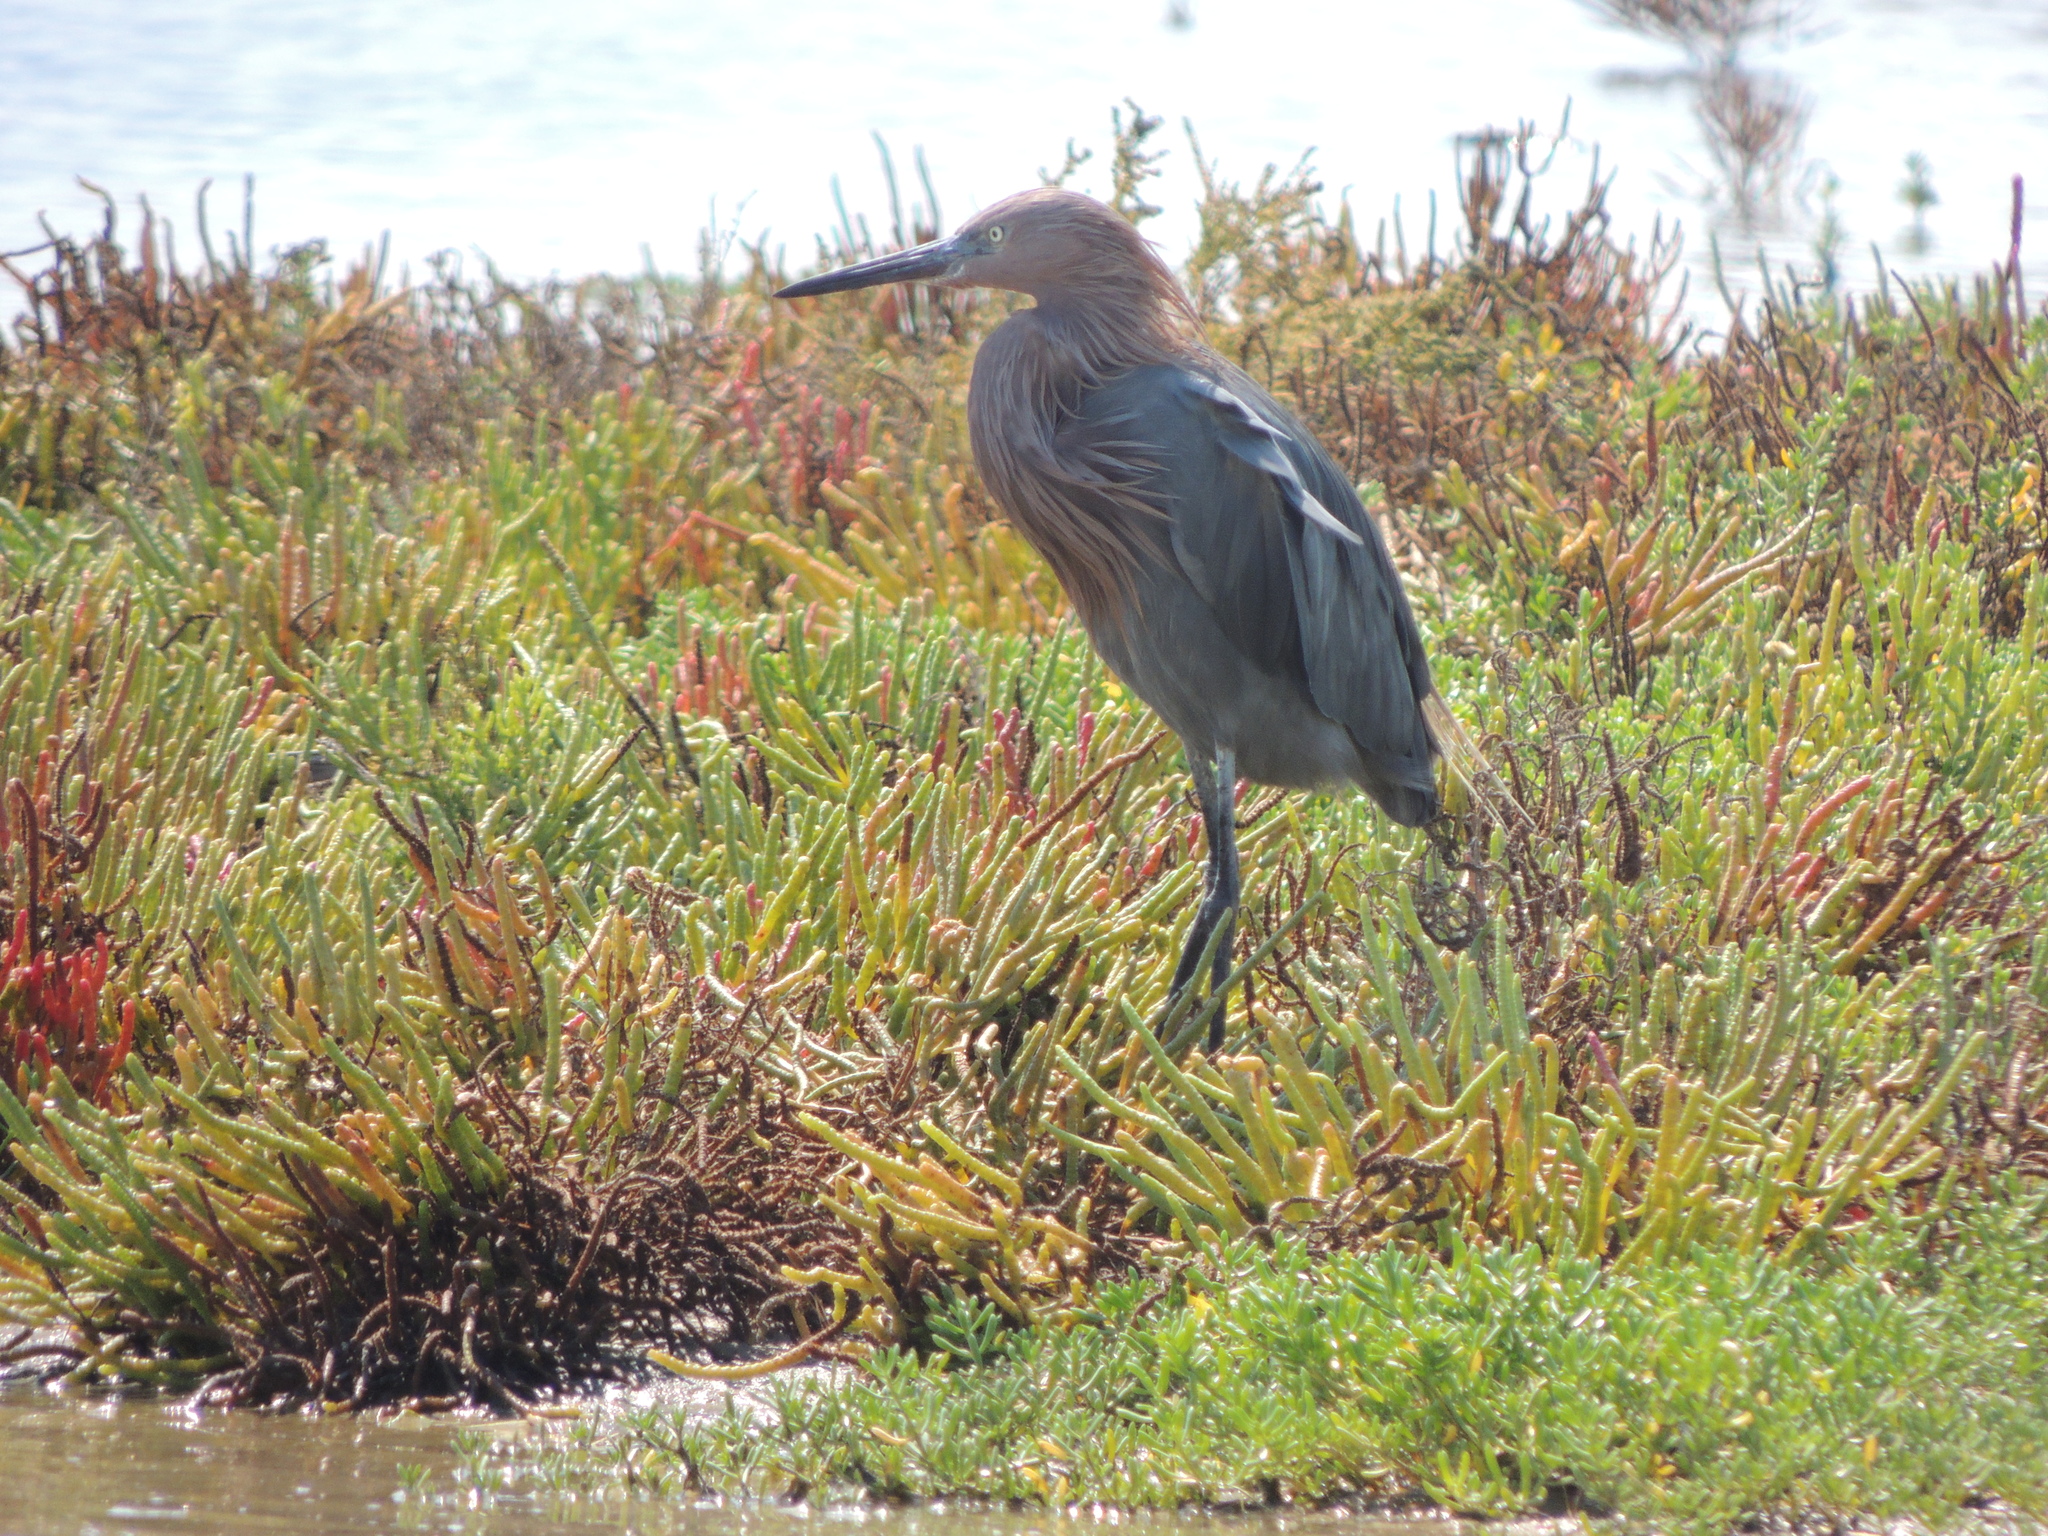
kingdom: Animalia
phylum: Chordata
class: Aves
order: Pelecaniformes
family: Ardeidae
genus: Egretta
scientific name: Egretta rufescens
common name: Reddish egret
